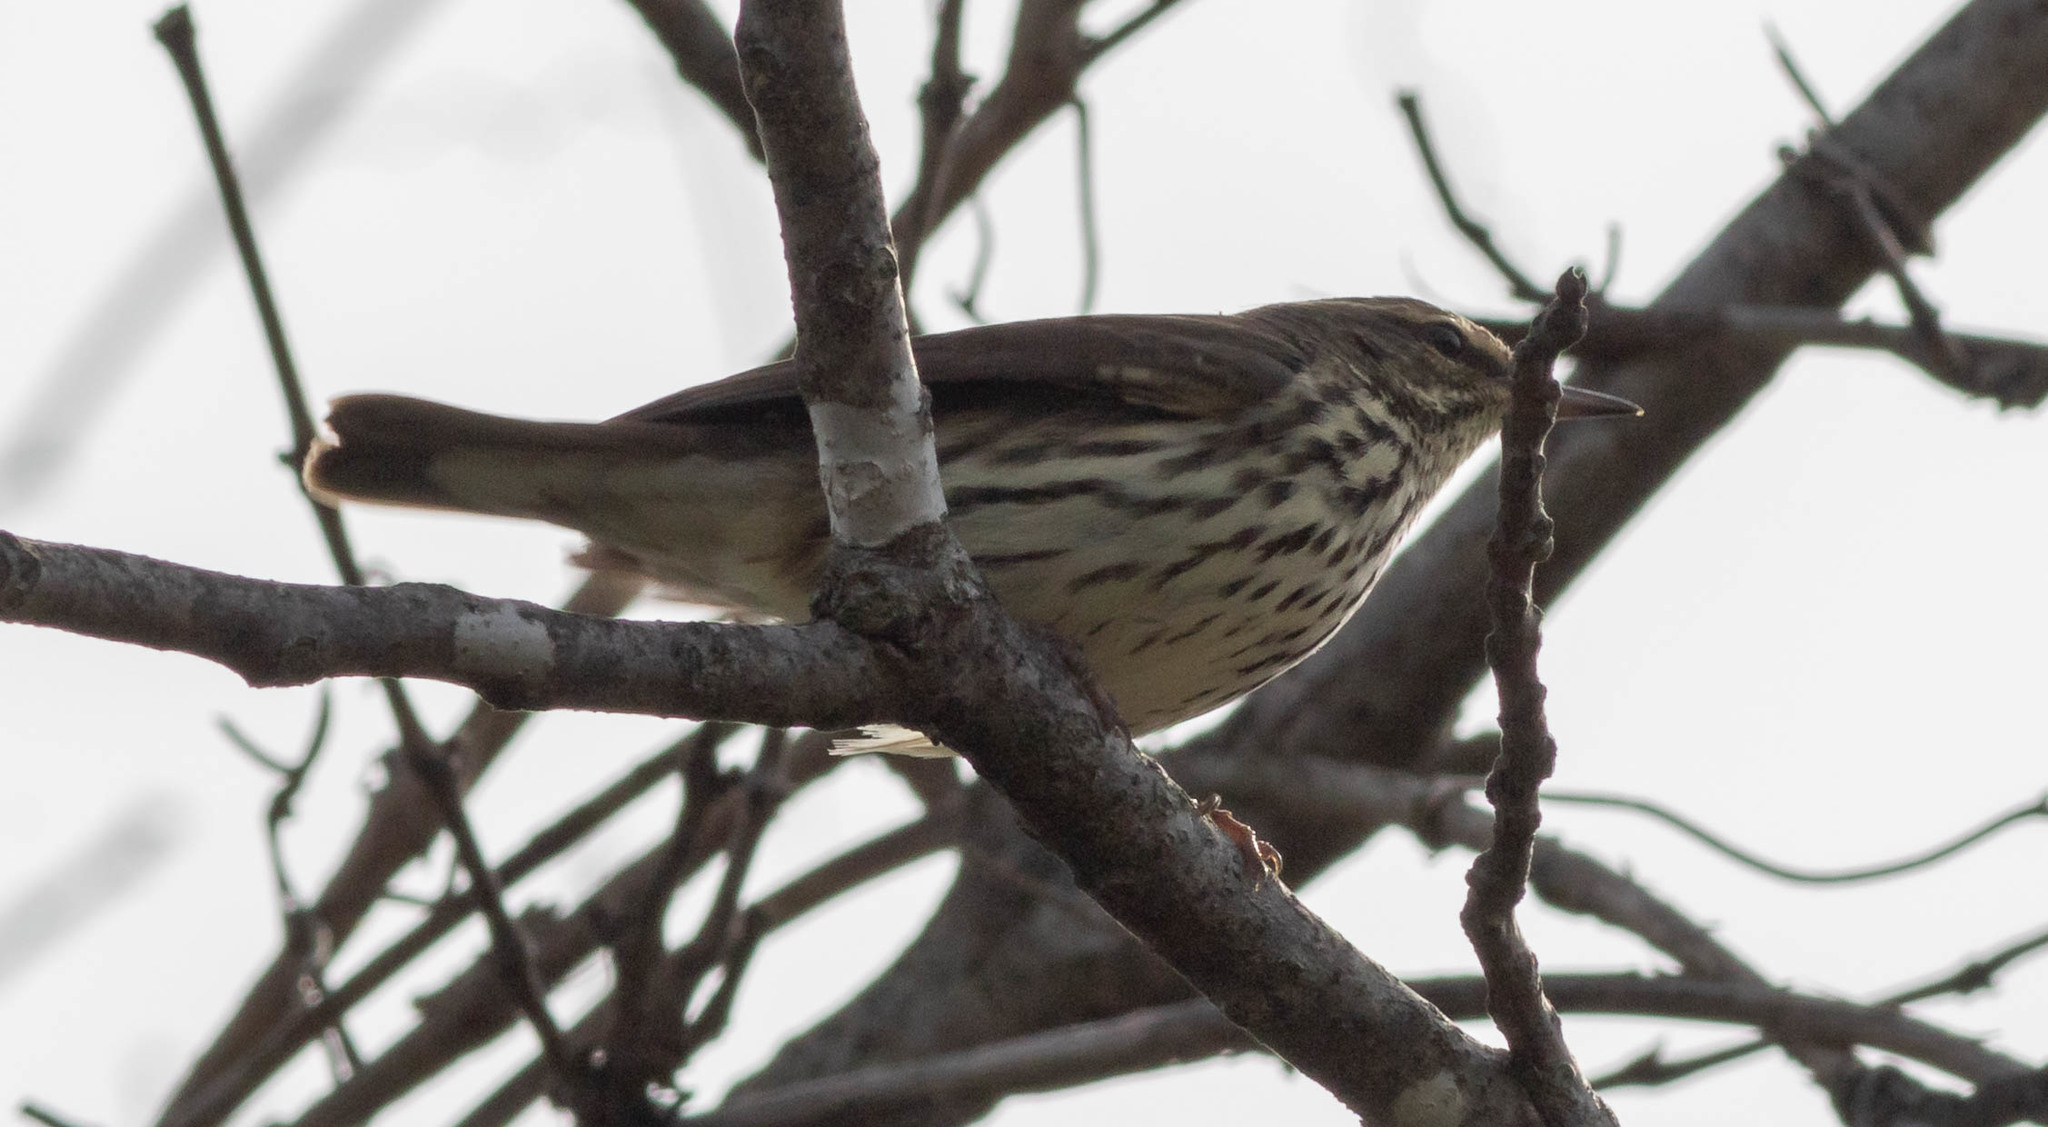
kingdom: Animalia
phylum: Chordata
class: Aves
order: Passeriformes
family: Parulidae
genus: Parkesia
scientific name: Parkesia noveboracensis
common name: Northern waterthrush
